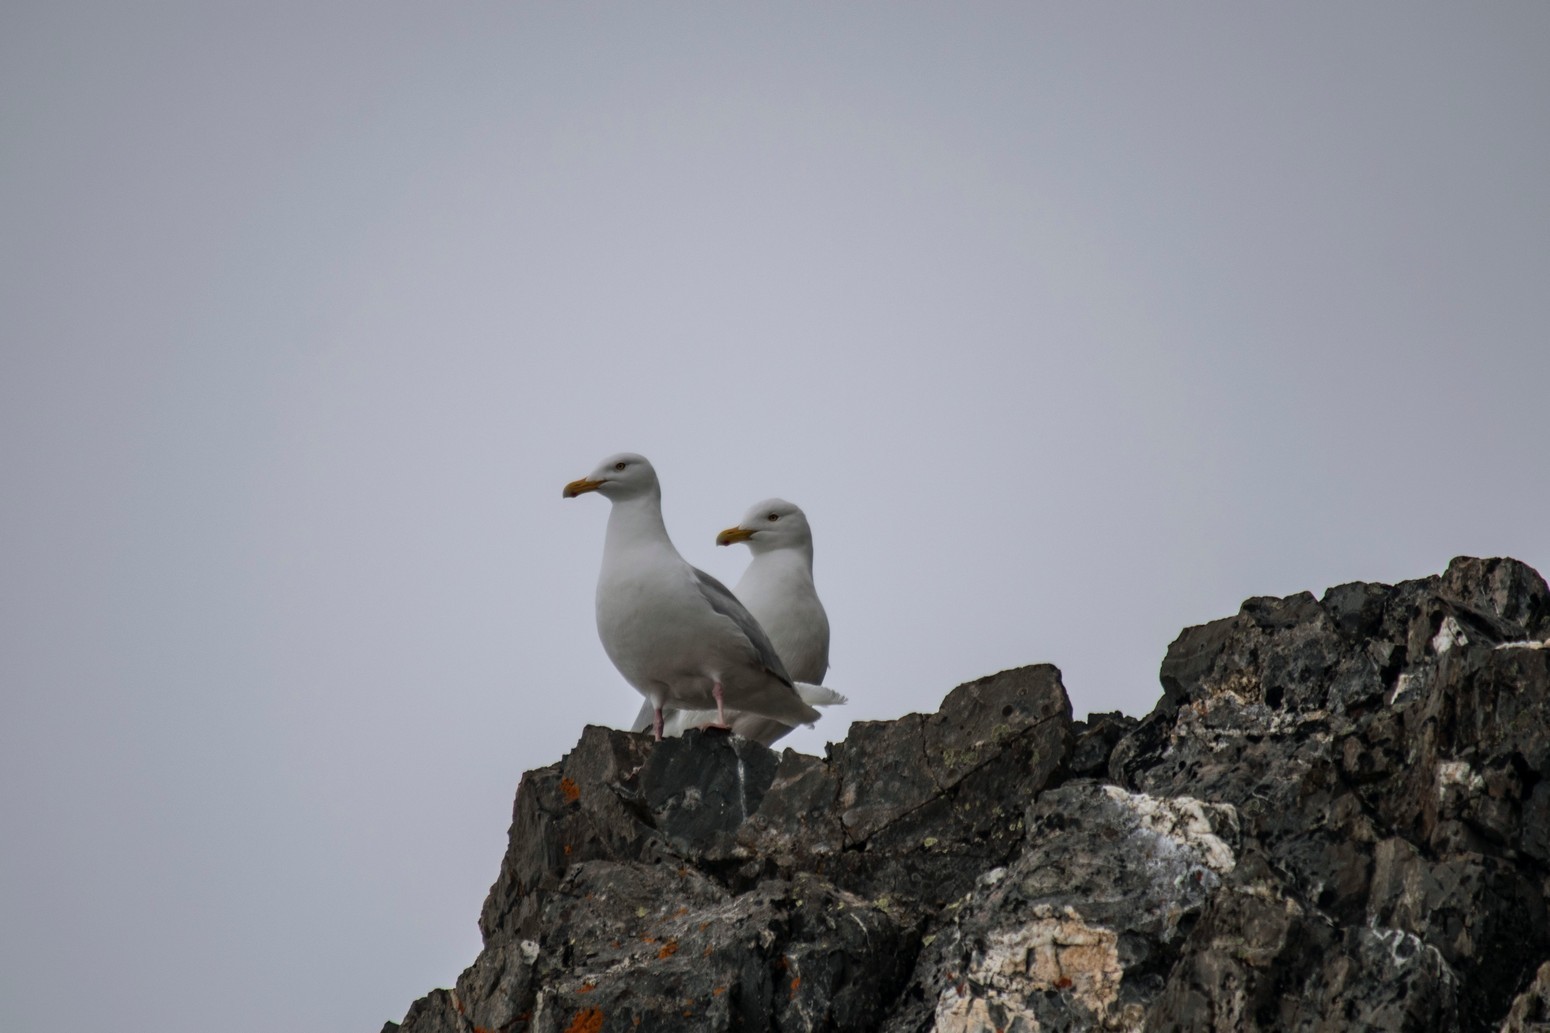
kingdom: Animalia
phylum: Chordata
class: Aves
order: Charadriiformes
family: Laridae
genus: Larus
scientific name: Larus hyperboreus
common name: Glaucous gull
